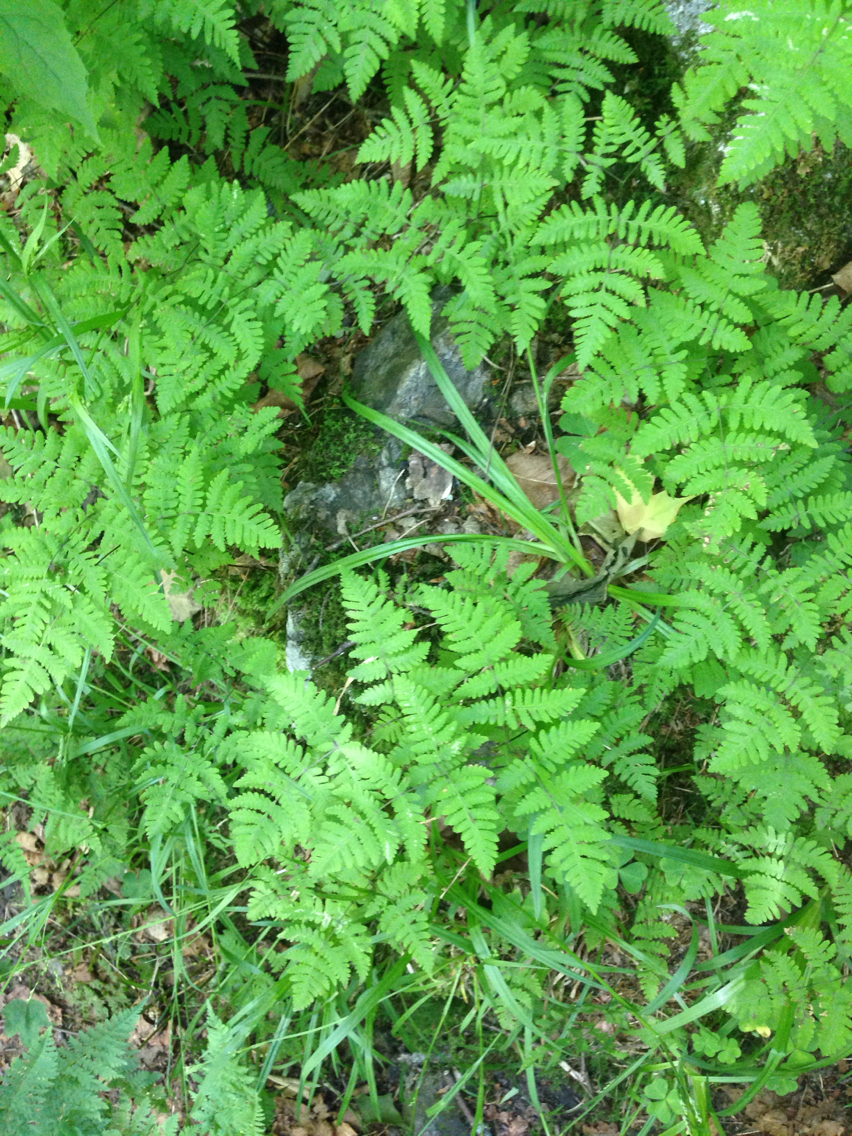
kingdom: Plantae
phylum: Tracheophyta
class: Polypodiopsida
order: Polypodiales
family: Cystopteridaceae
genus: Gymnocarpium
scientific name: Gymnocarpium dryopteris
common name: Oak fern
